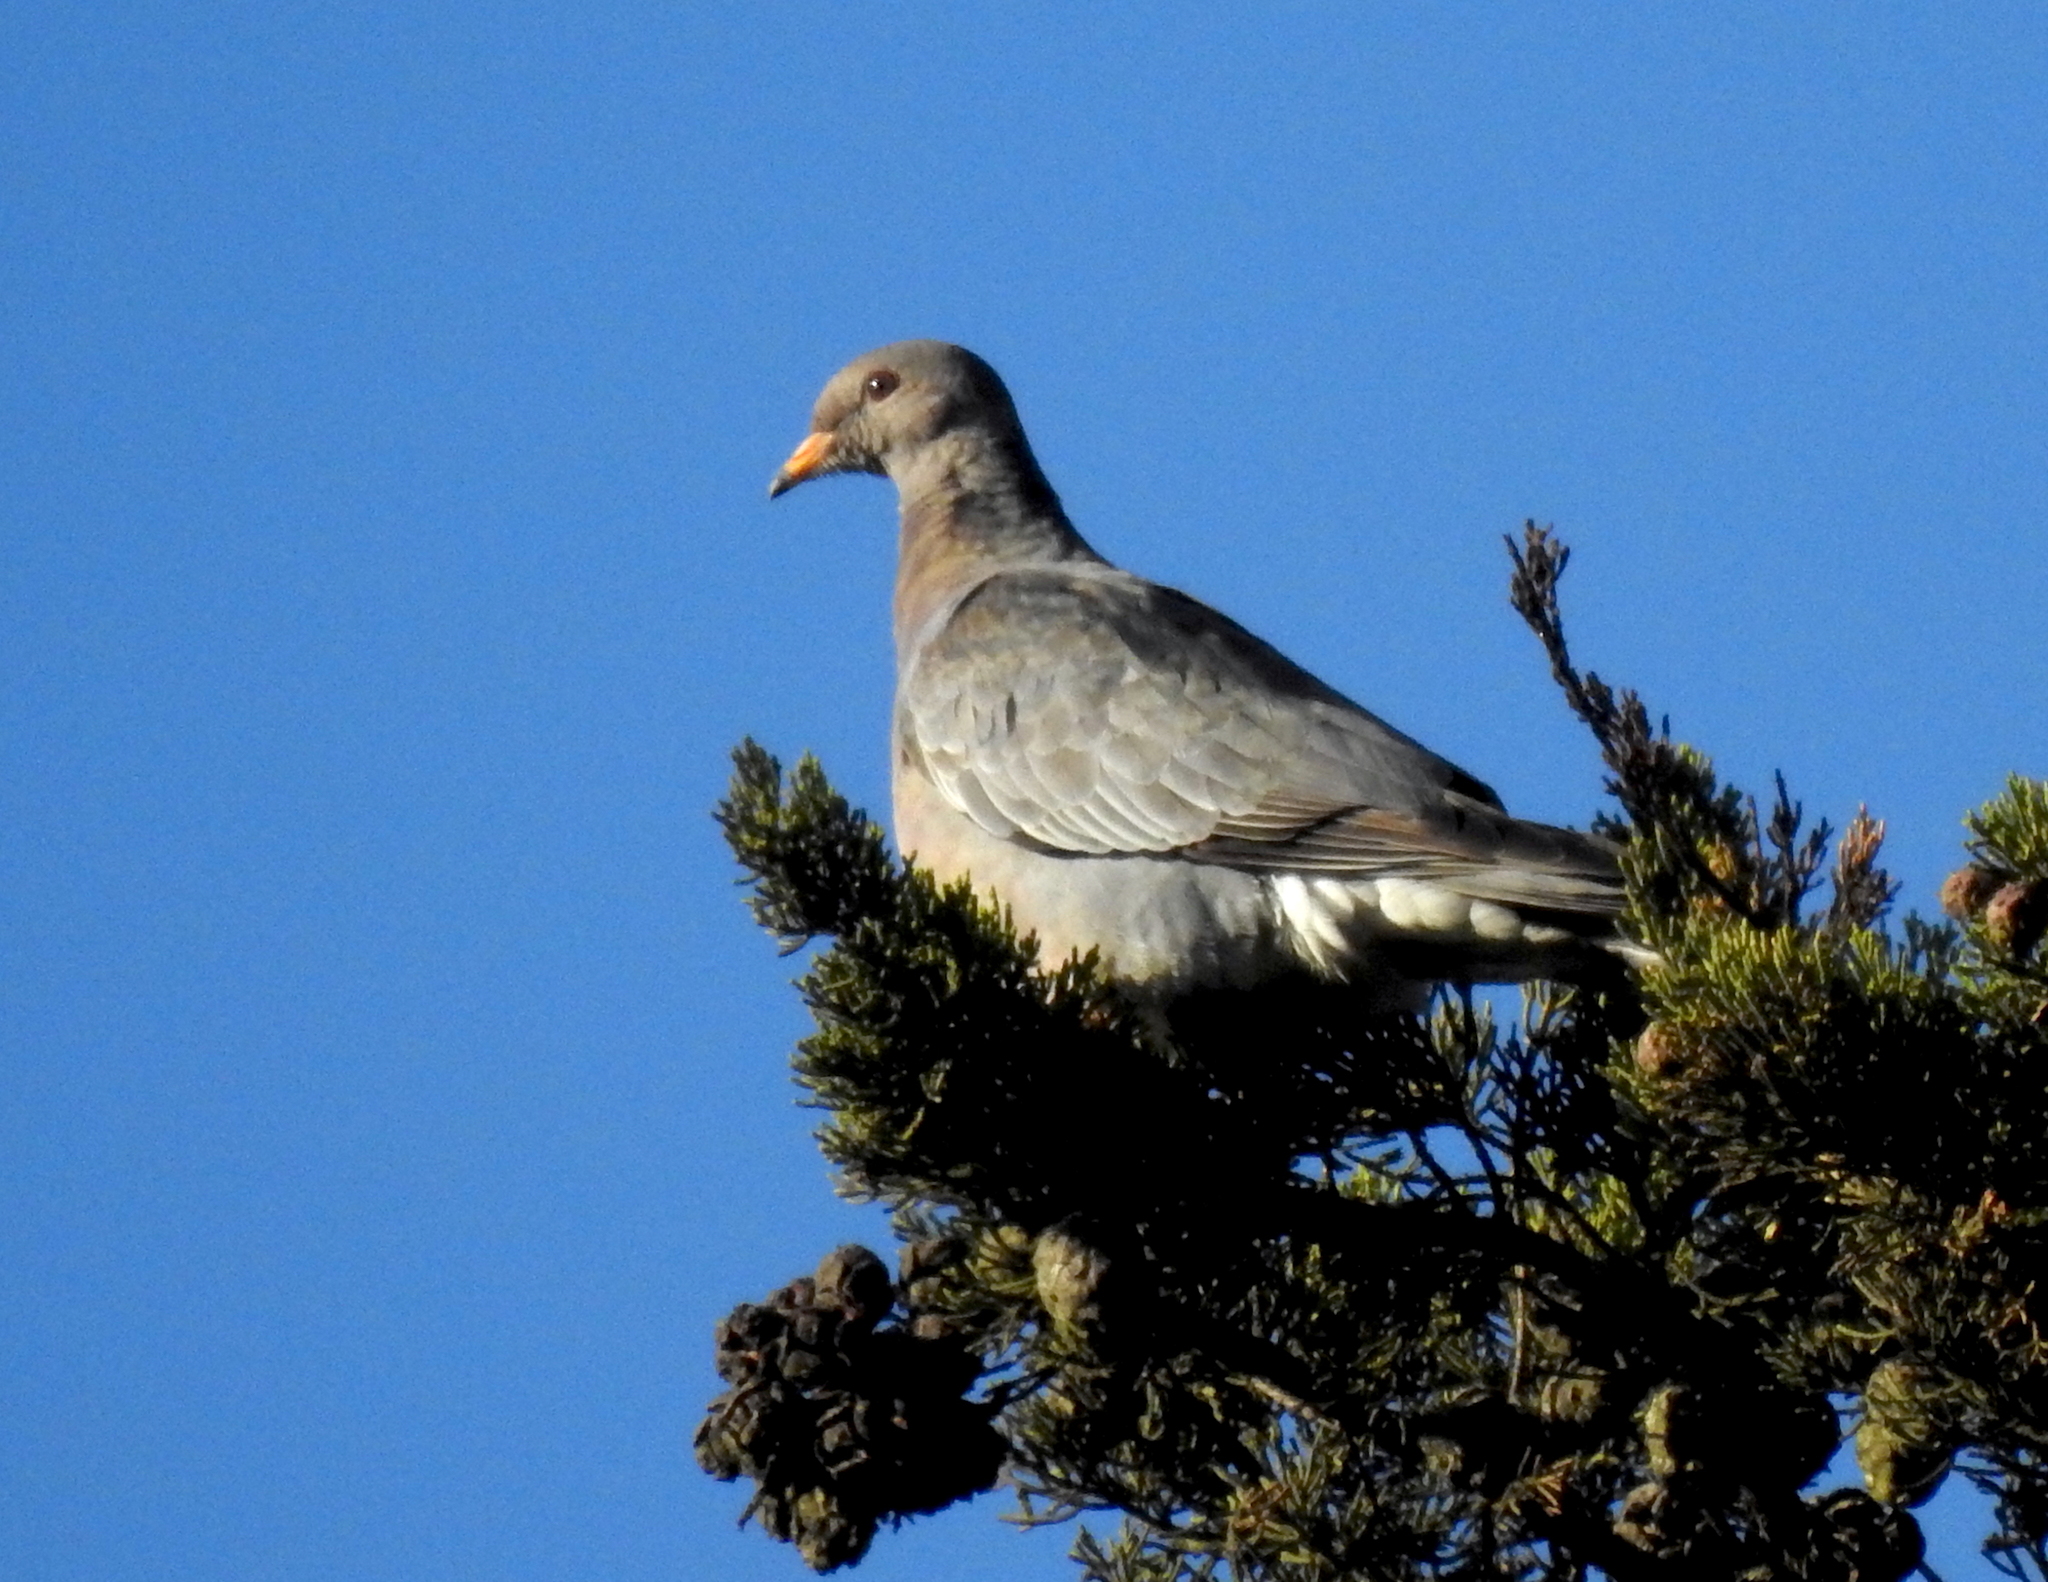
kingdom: Animalia
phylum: Chordata
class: Aves
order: Columbiformes
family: Columbidae
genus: Patagioenas
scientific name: Patagioenas fasciata
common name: Band-tailed pigeon
